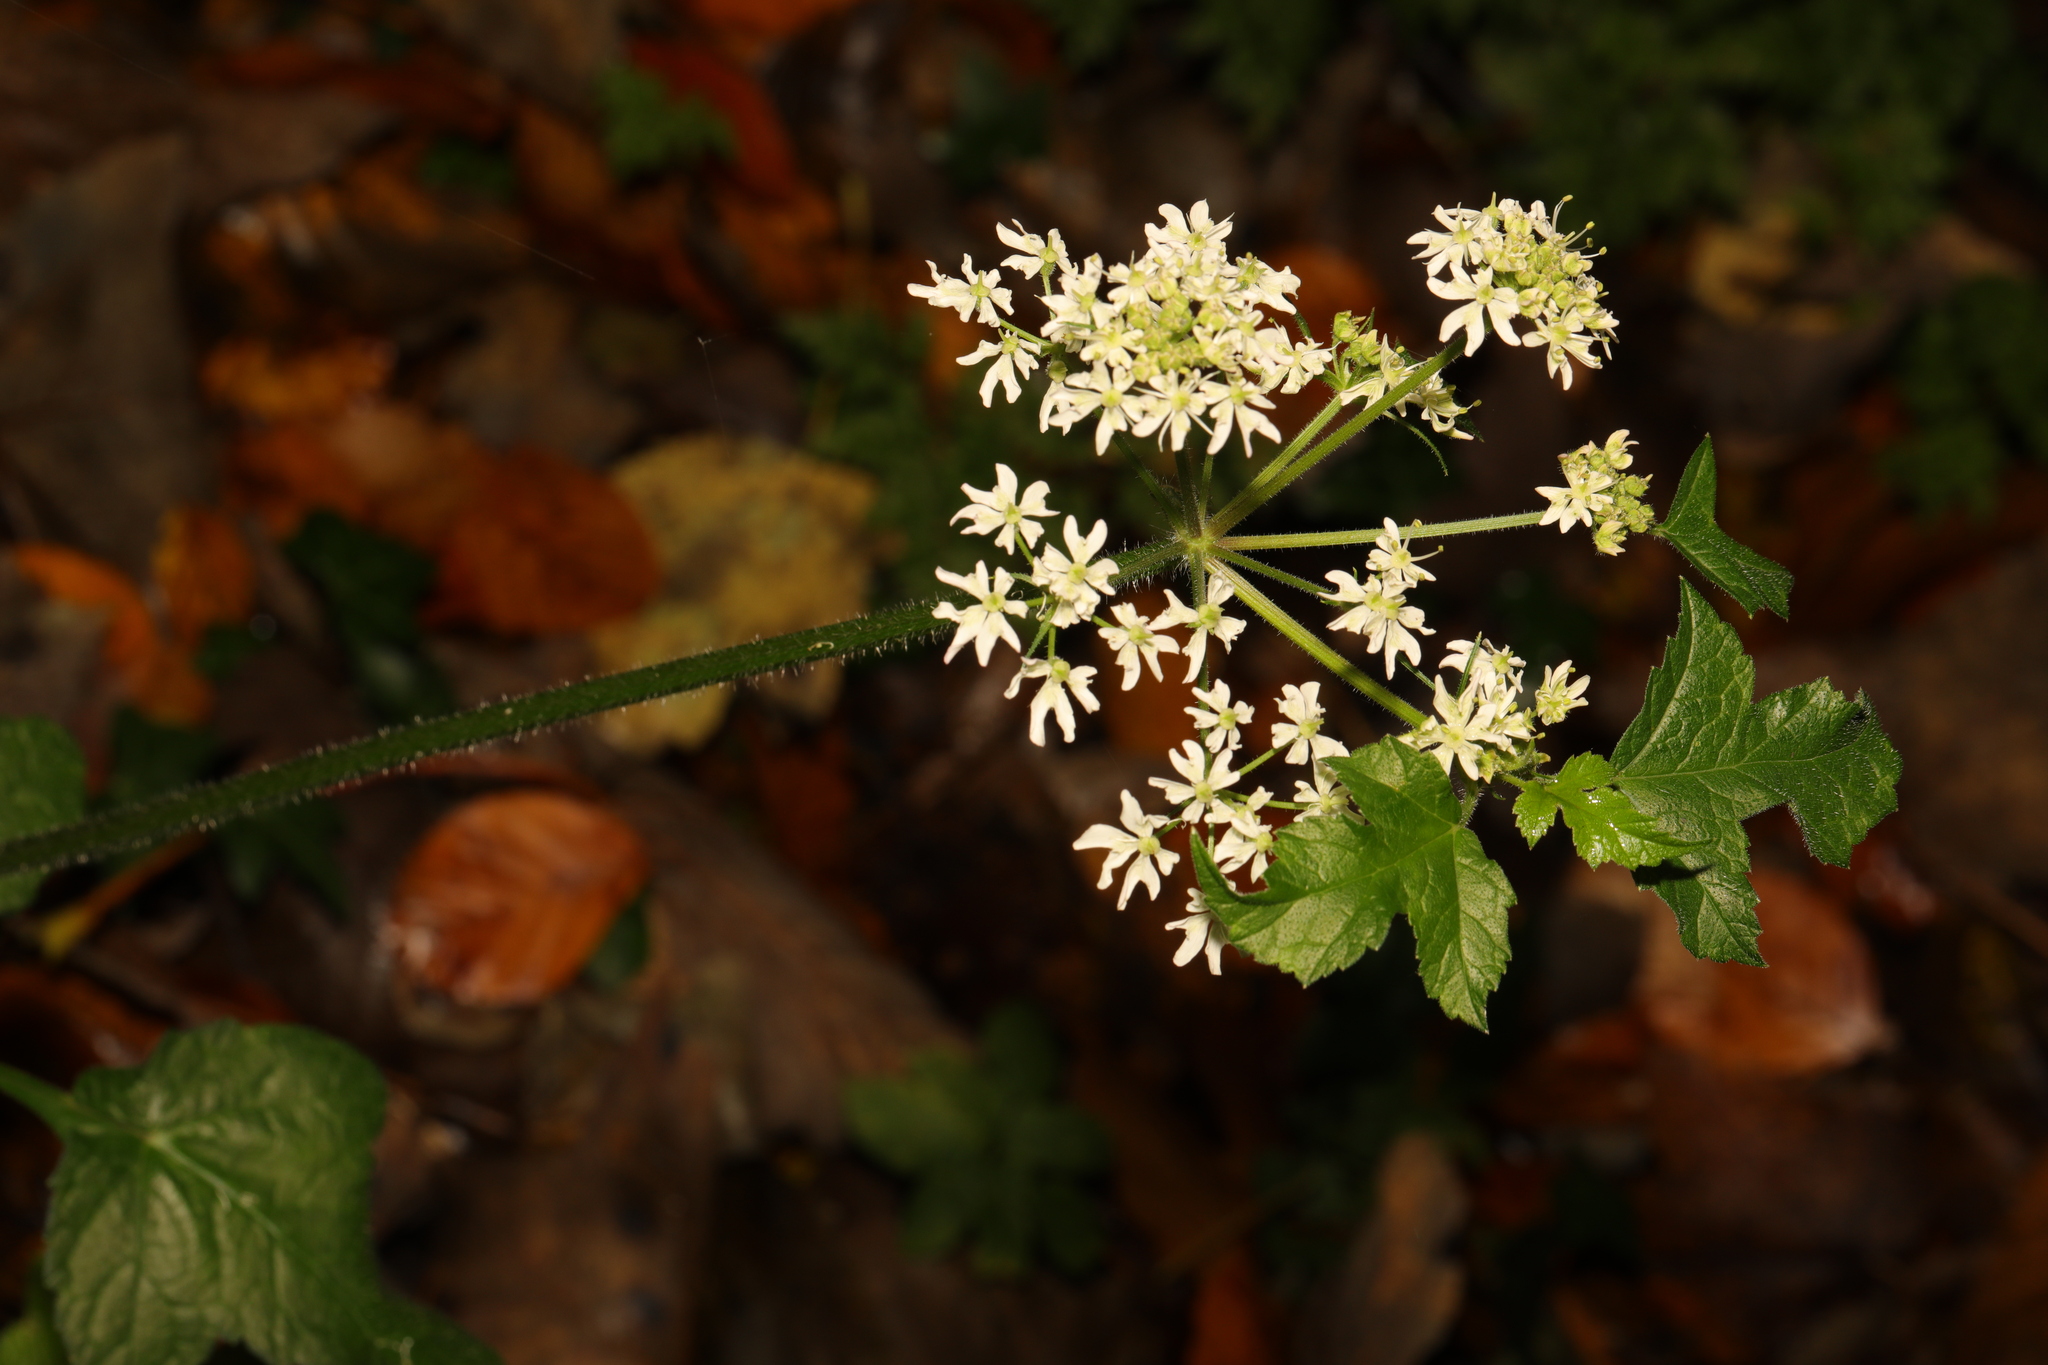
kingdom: Plantae
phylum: Tracheophyta
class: Magnoliopsida
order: Apiales
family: Apiaceae
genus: Heracleum
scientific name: Heracleum sphondylium
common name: Hogweed
